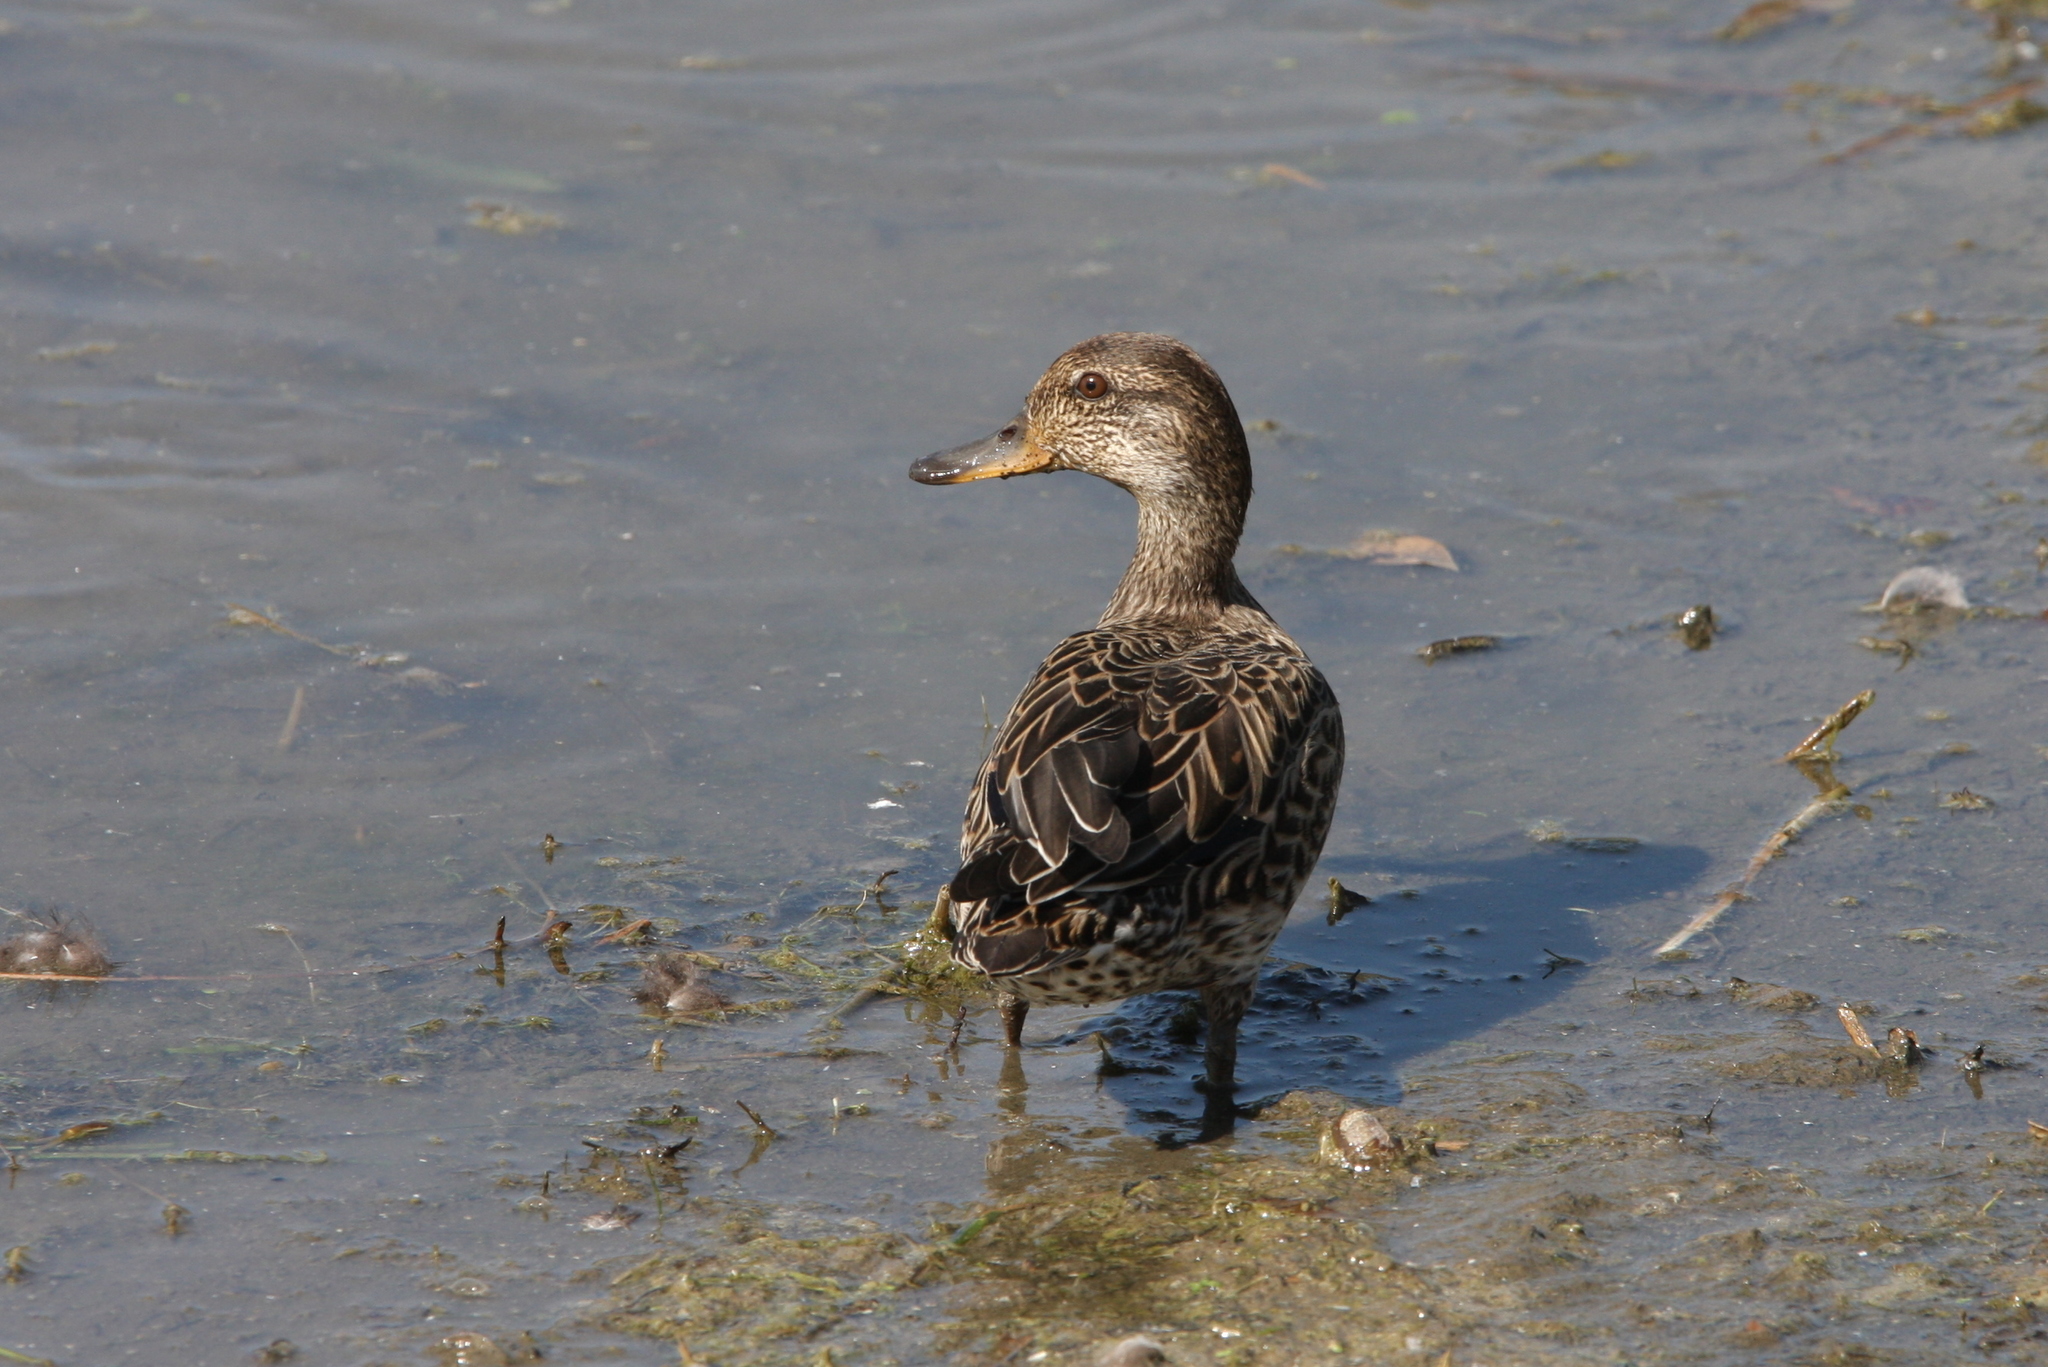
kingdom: Animalia
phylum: Chordata
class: Aves
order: Anseriformes
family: Anatidae
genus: Anas
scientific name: Anas crecca
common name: Eurasian teal
